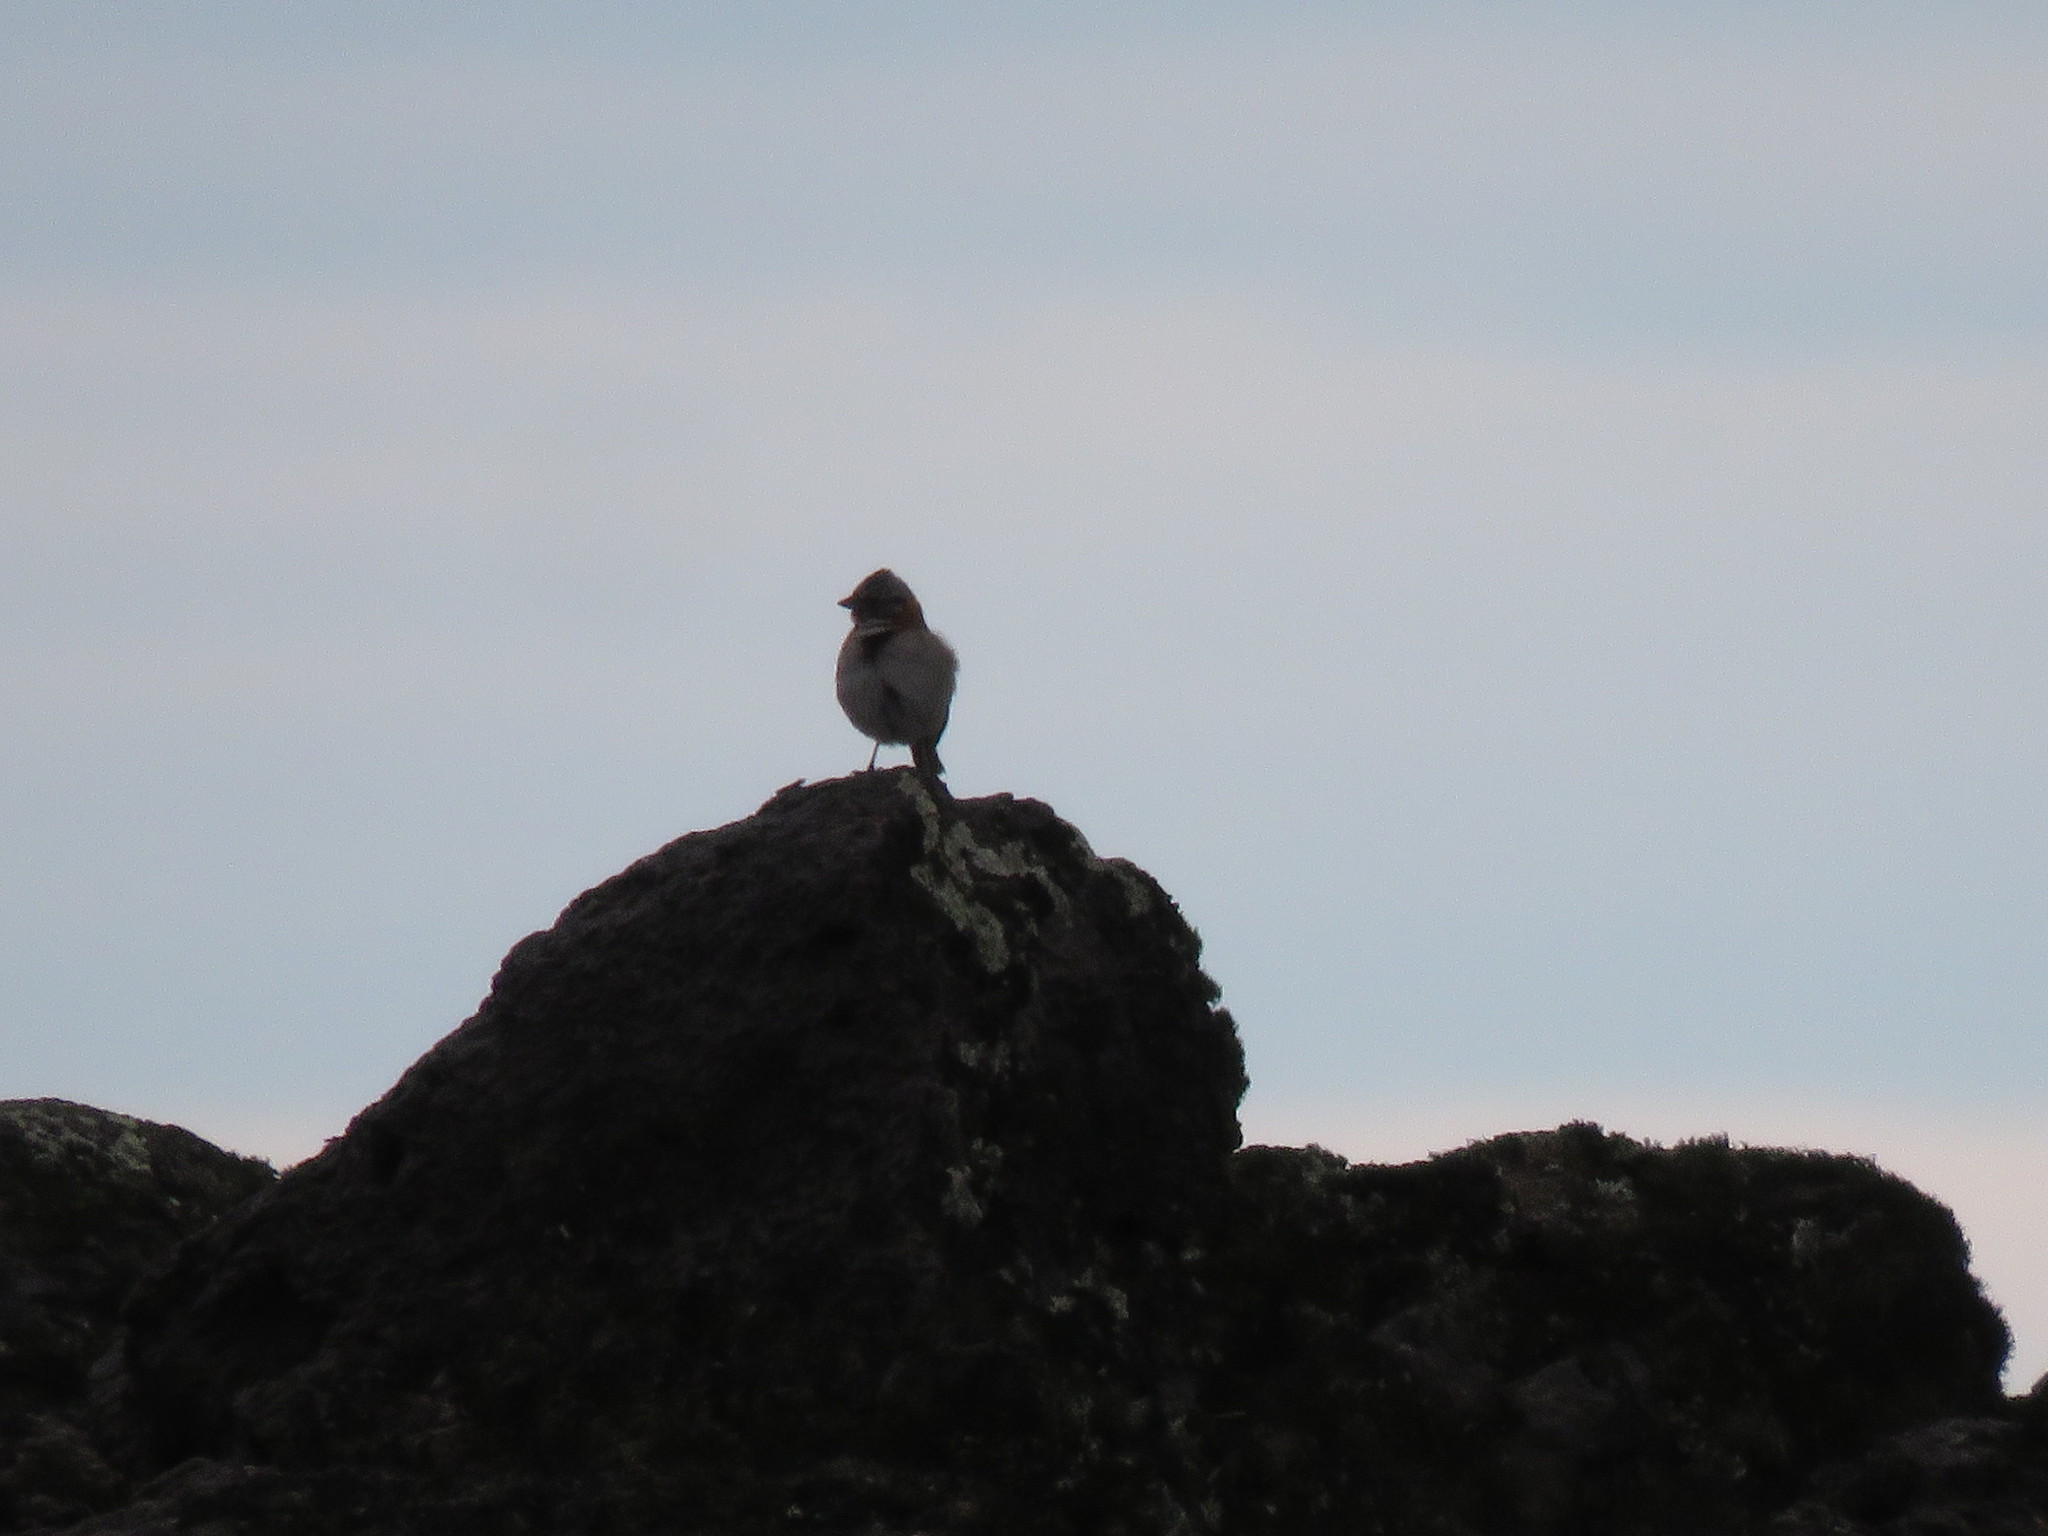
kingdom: Animalia
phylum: Chordata
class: Aves
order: Passeriformes
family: Passerellidae
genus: Zonotrichia
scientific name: Zonotrichia capensis
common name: Rufous-collared sparrow
